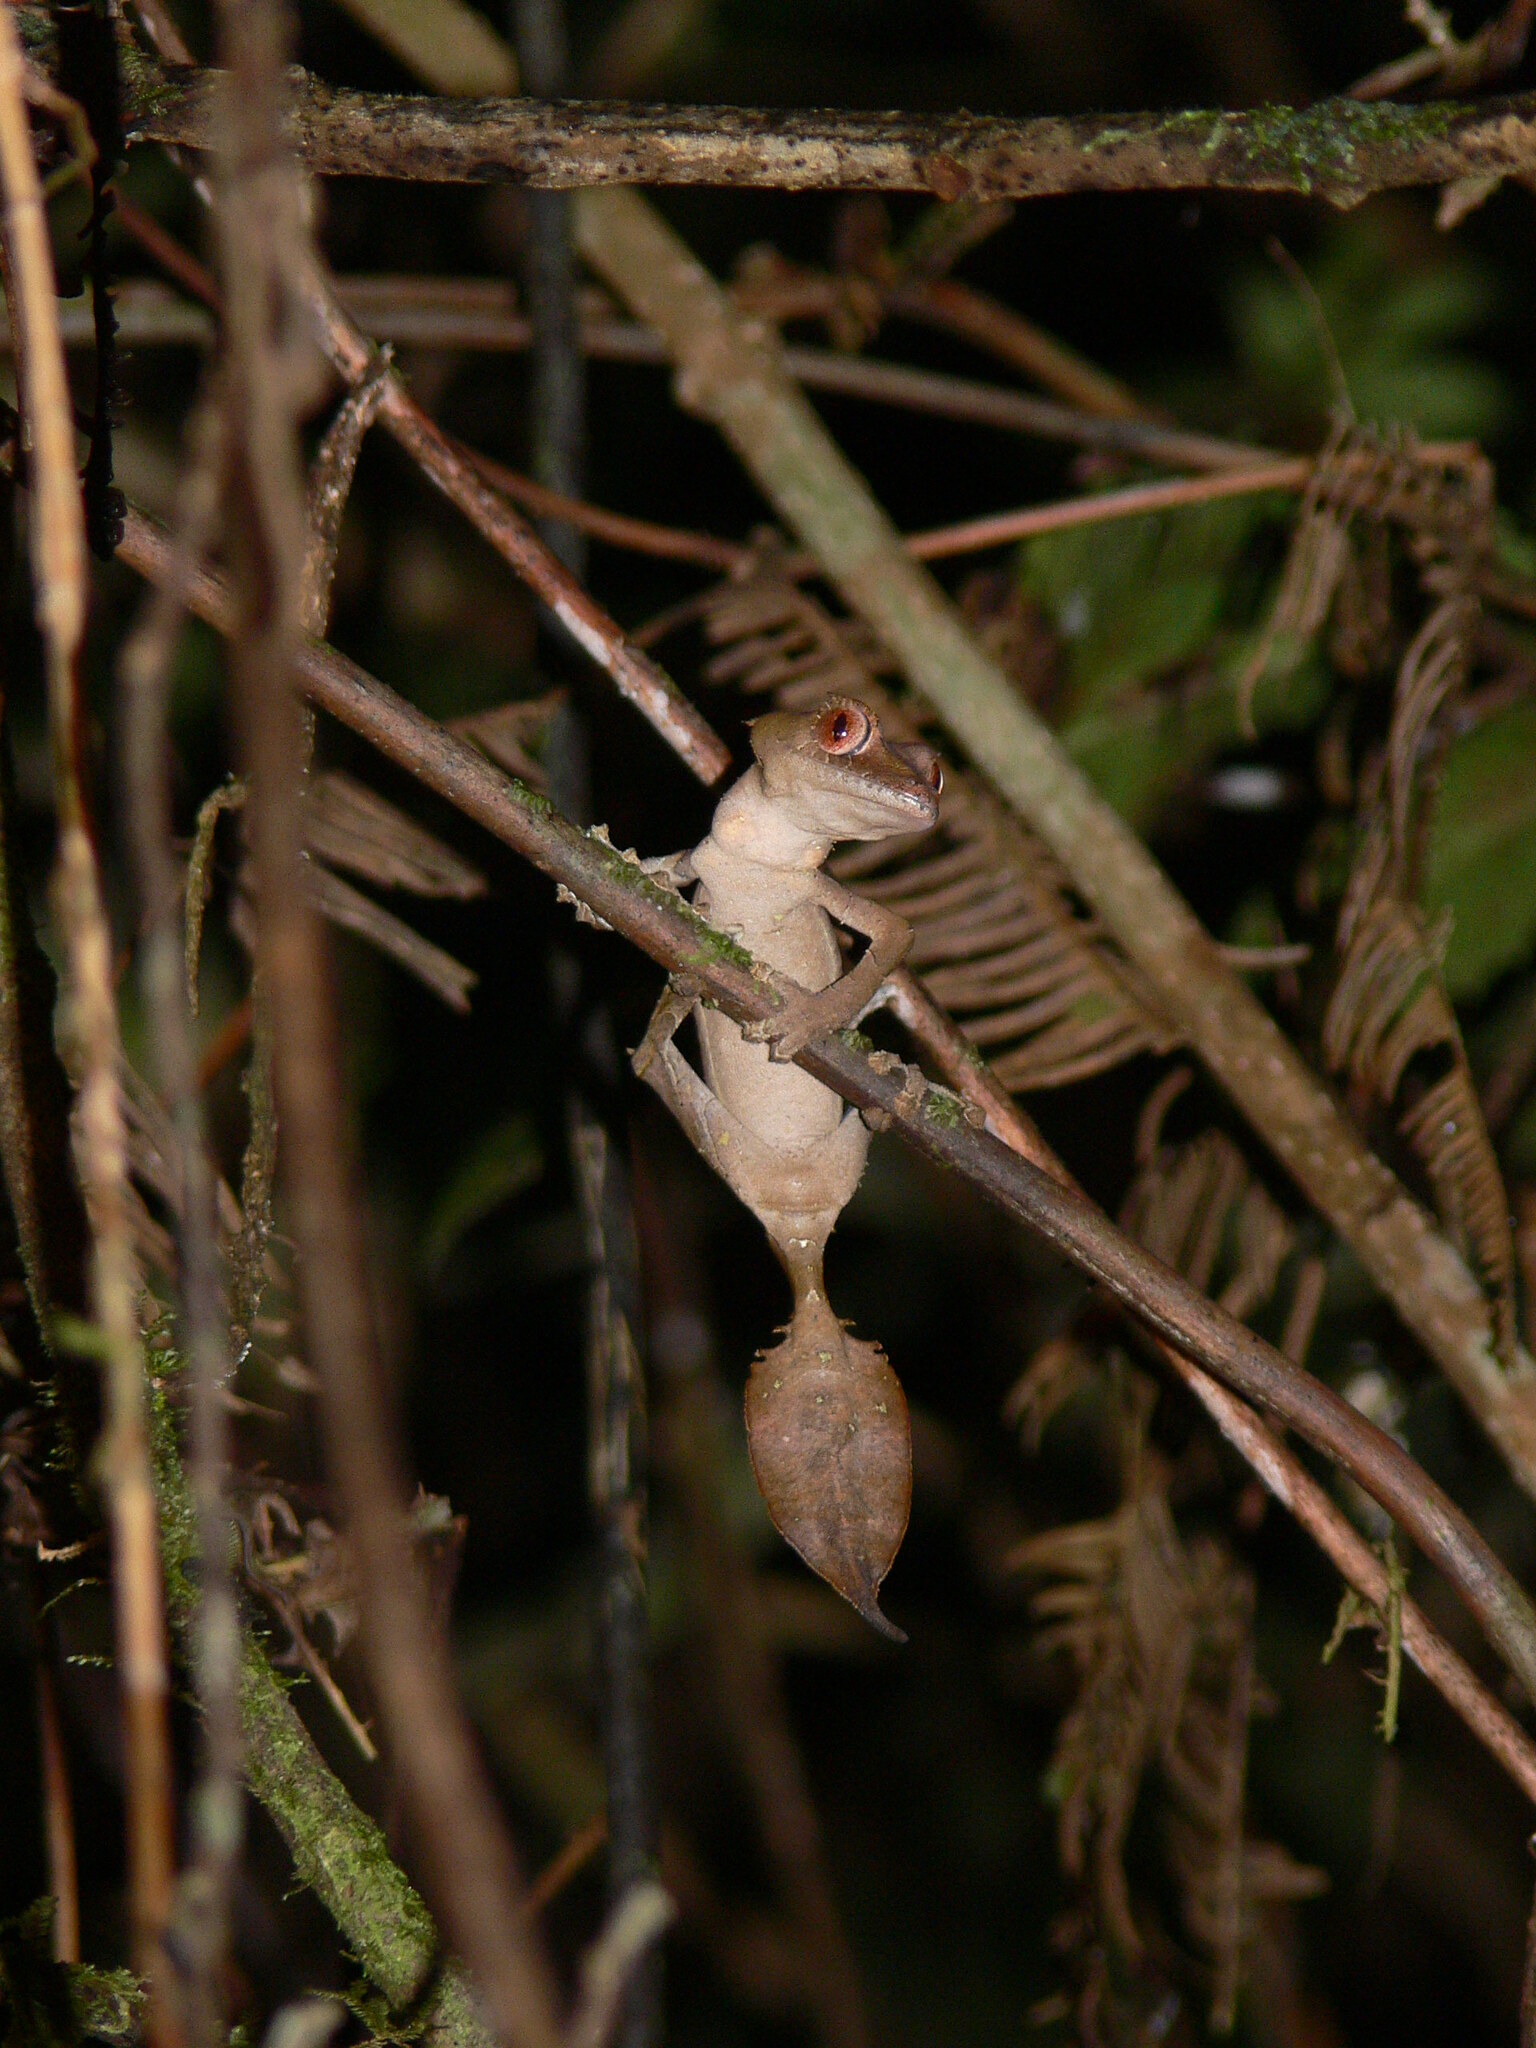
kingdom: Animalia
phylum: Chordata
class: Squamata
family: Gekkonidae
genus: Uroplatus
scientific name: Uroplatus phantasticus
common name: Phantastic leaf-tailed gecko
